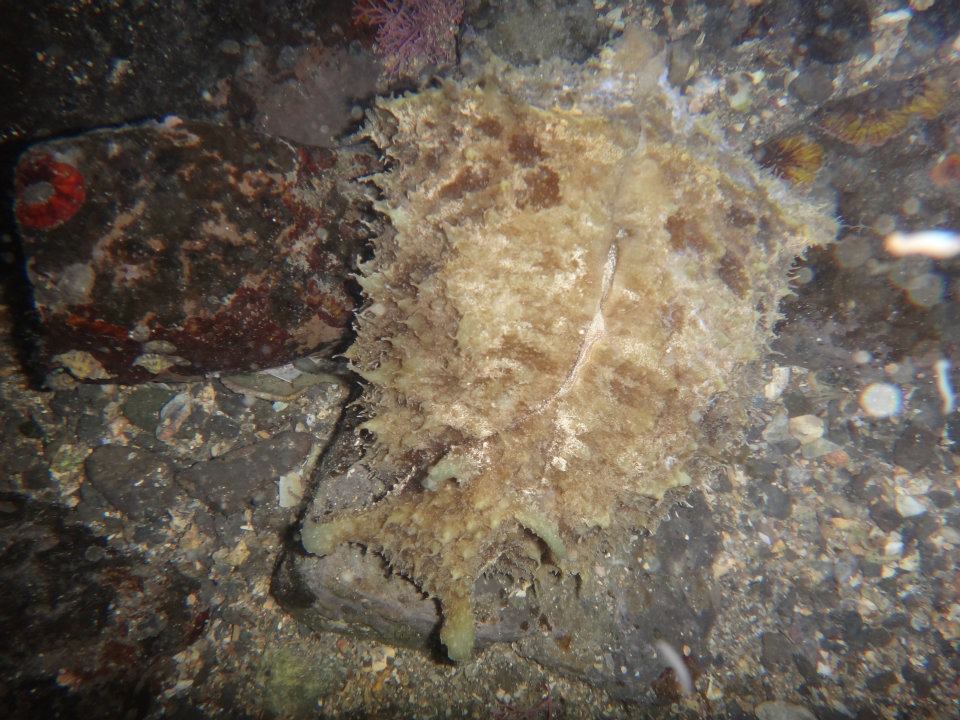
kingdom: Animalia
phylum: Mollusca
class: Gastropoda
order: Aplysiida
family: Aplysiidae
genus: Dolabella
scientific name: Dolabella auricularia
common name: Blunt-end seahare
